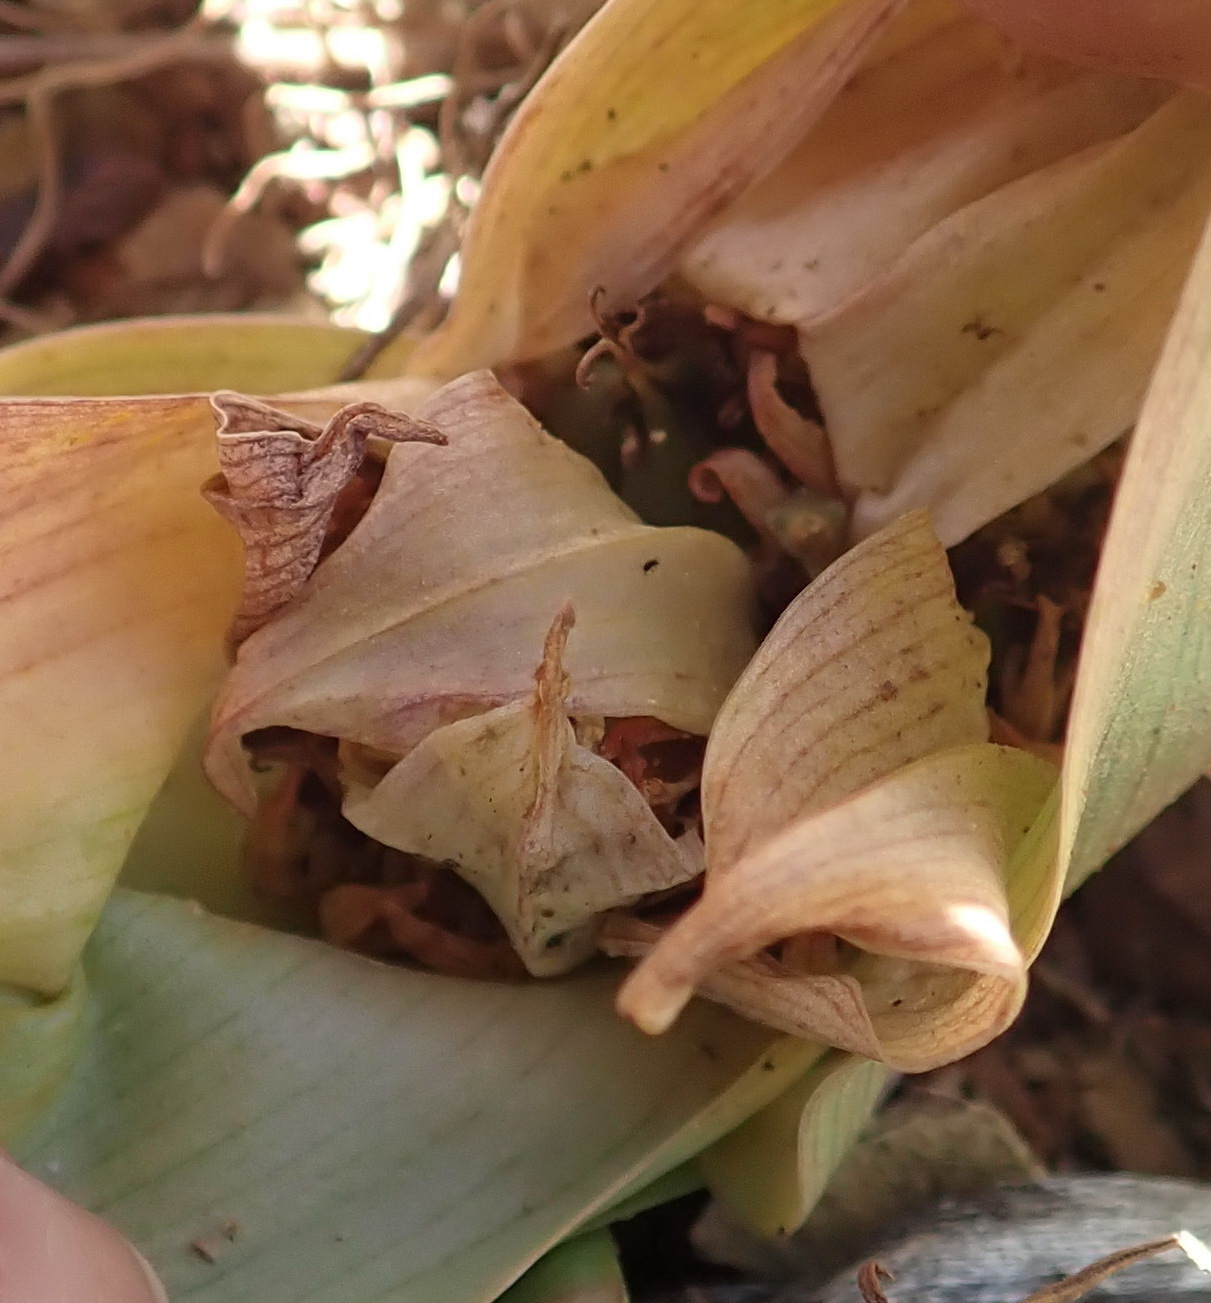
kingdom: Plantae
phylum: Tracheophyta
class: Liliopsida
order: Liliales
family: Colchicaceae
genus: Colchicum
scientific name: Colchicum eucomoides
